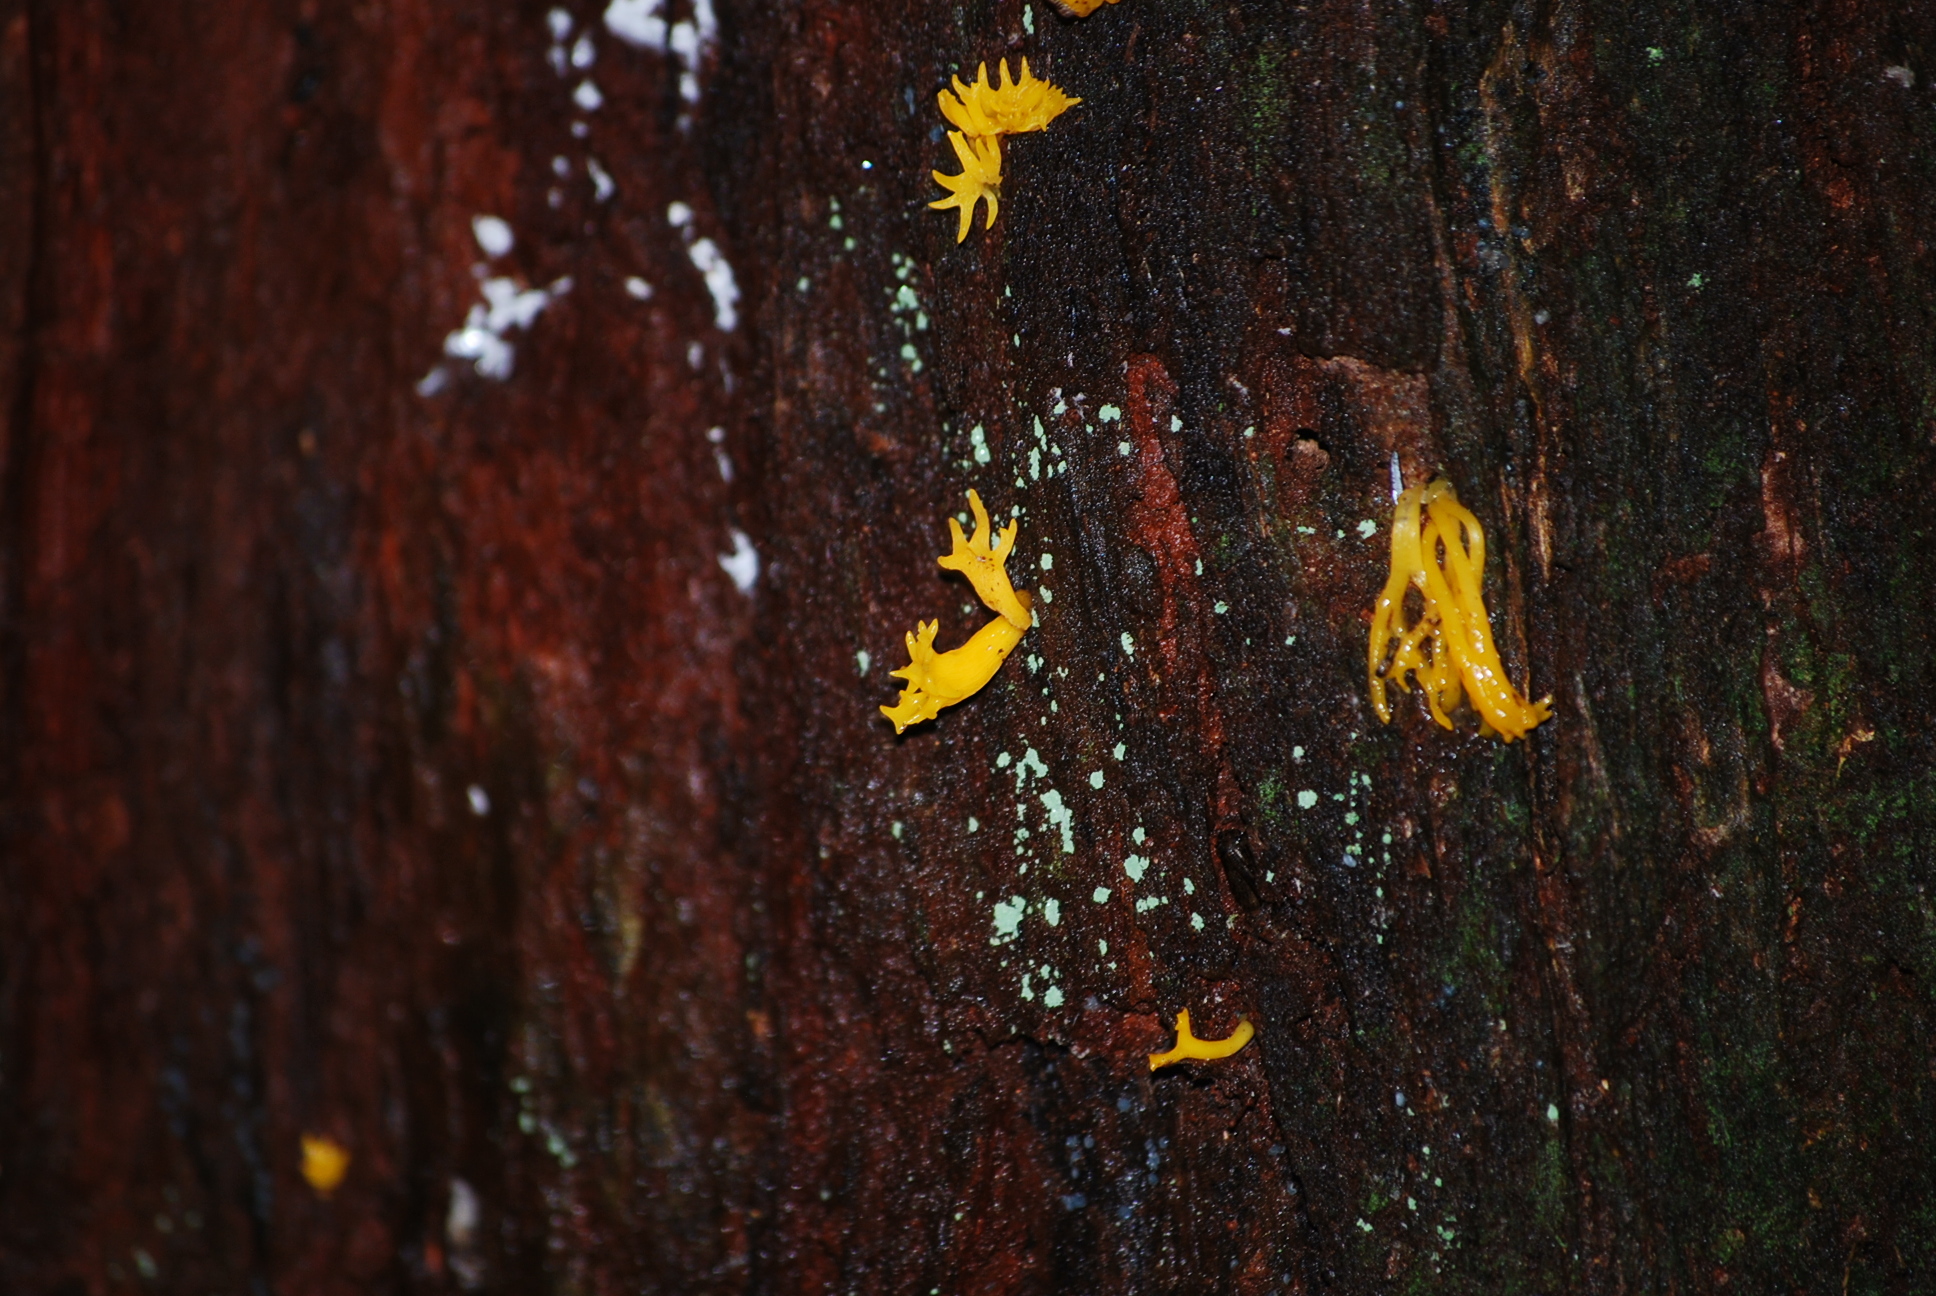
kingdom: Fungi
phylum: Basidiomycota
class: Dacrymycetes
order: Dacrymycetales
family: Dacrymycetaceae
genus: Calocera
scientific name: Calocera viscosa
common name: Yellow stagshorn
